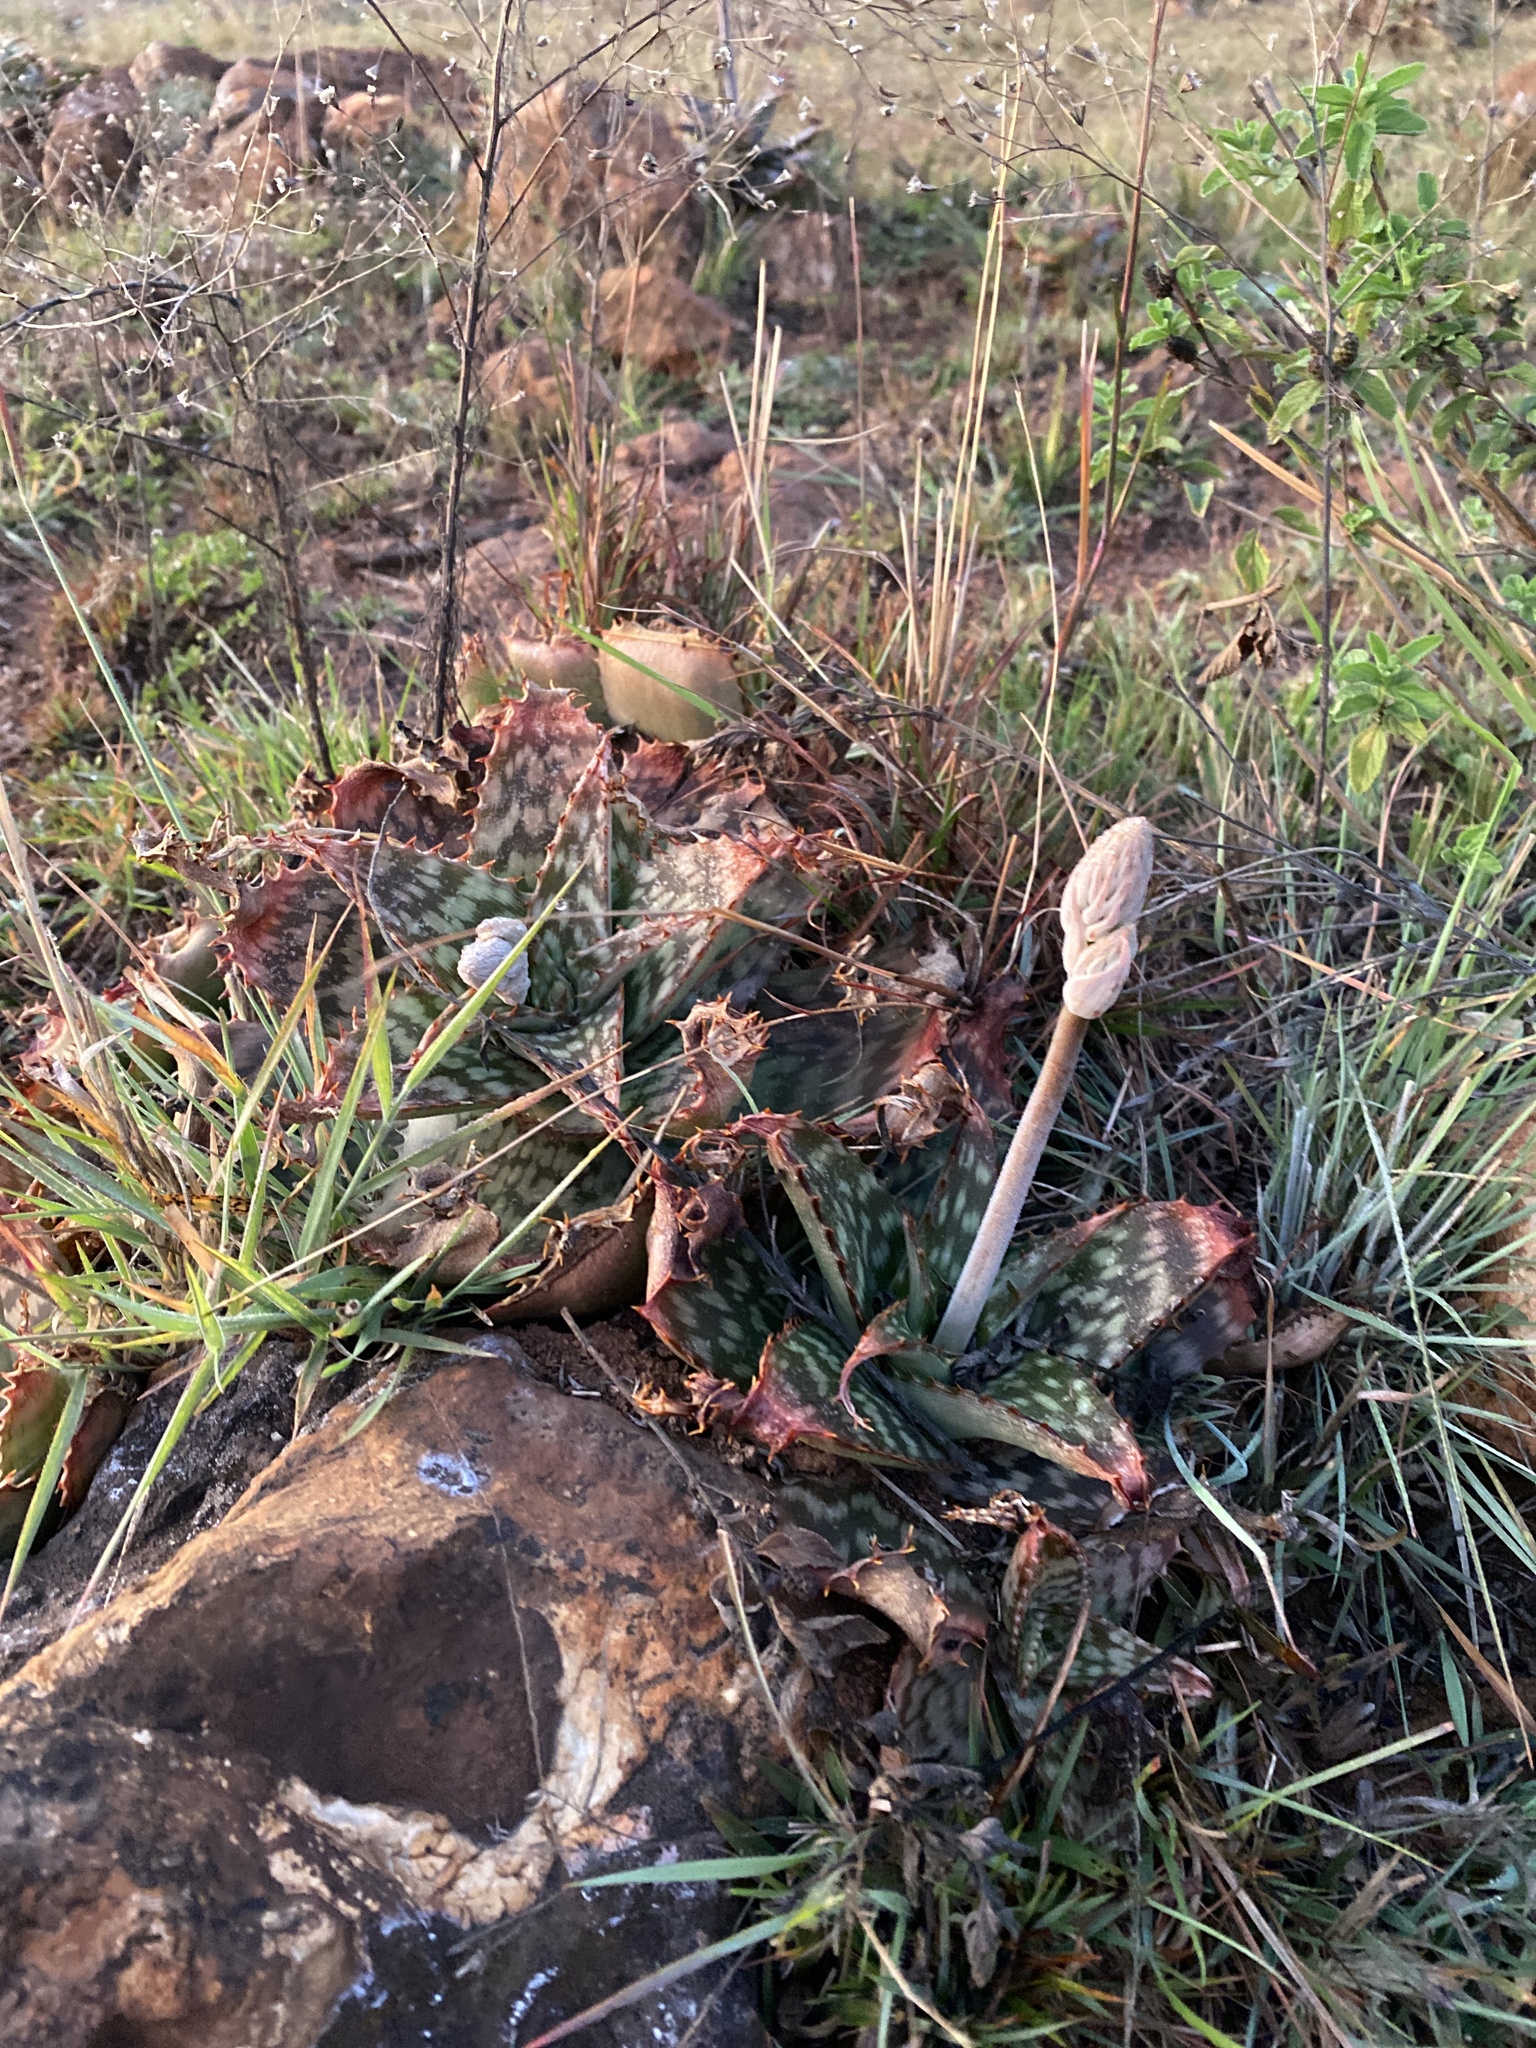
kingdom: Plantae
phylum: Tracheophyta
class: Liliopsida
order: Asparagales
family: Asphodelaceae
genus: Aloe
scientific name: Aloe davyana
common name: Spotted aloe
